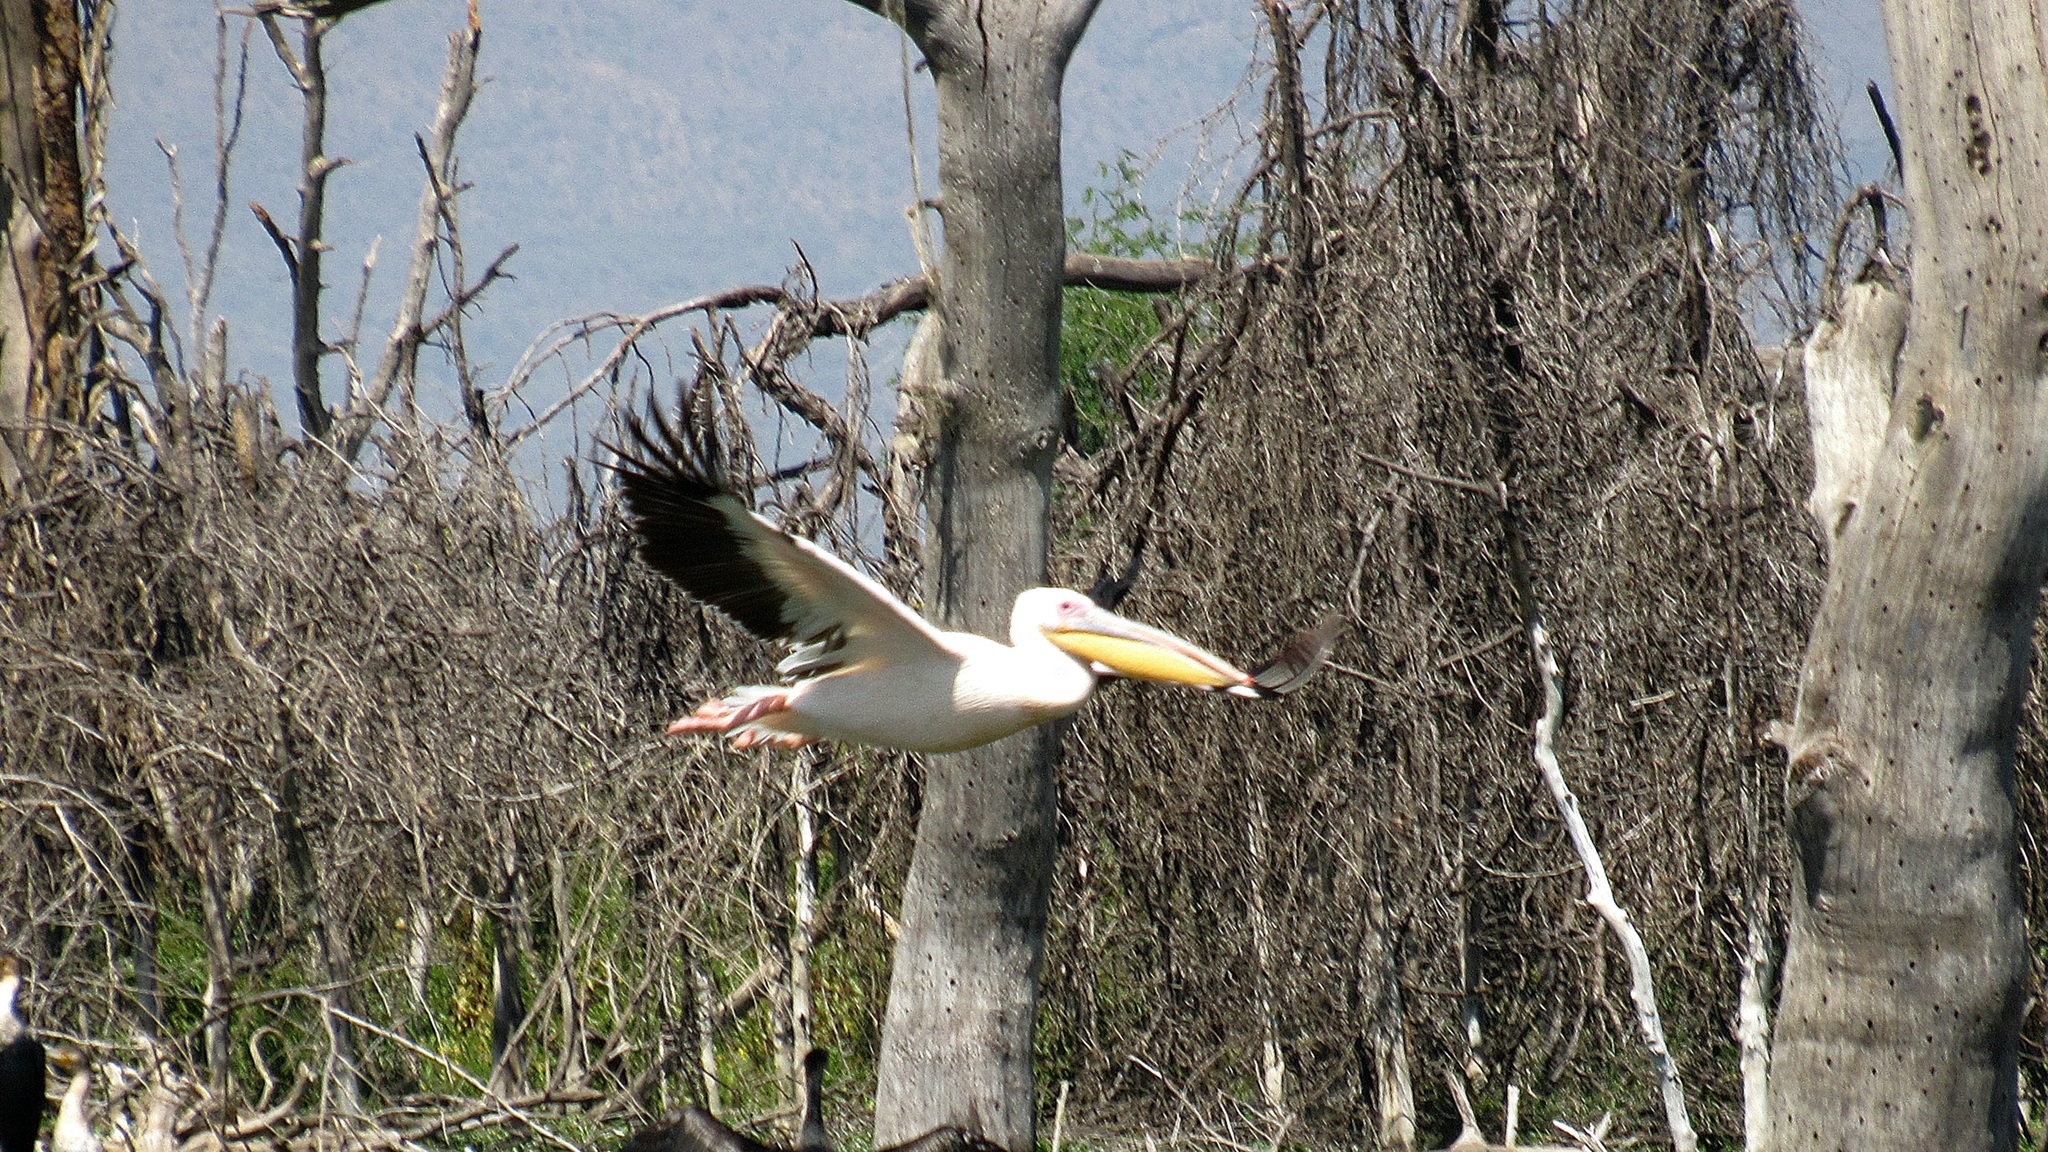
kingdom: Animalia
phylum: Chordata
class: Aves
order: Pelecaniformes
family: Pelecanidae
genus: Pelecanus
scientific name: Pelecanus onocrotalus
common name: Great white pelican
